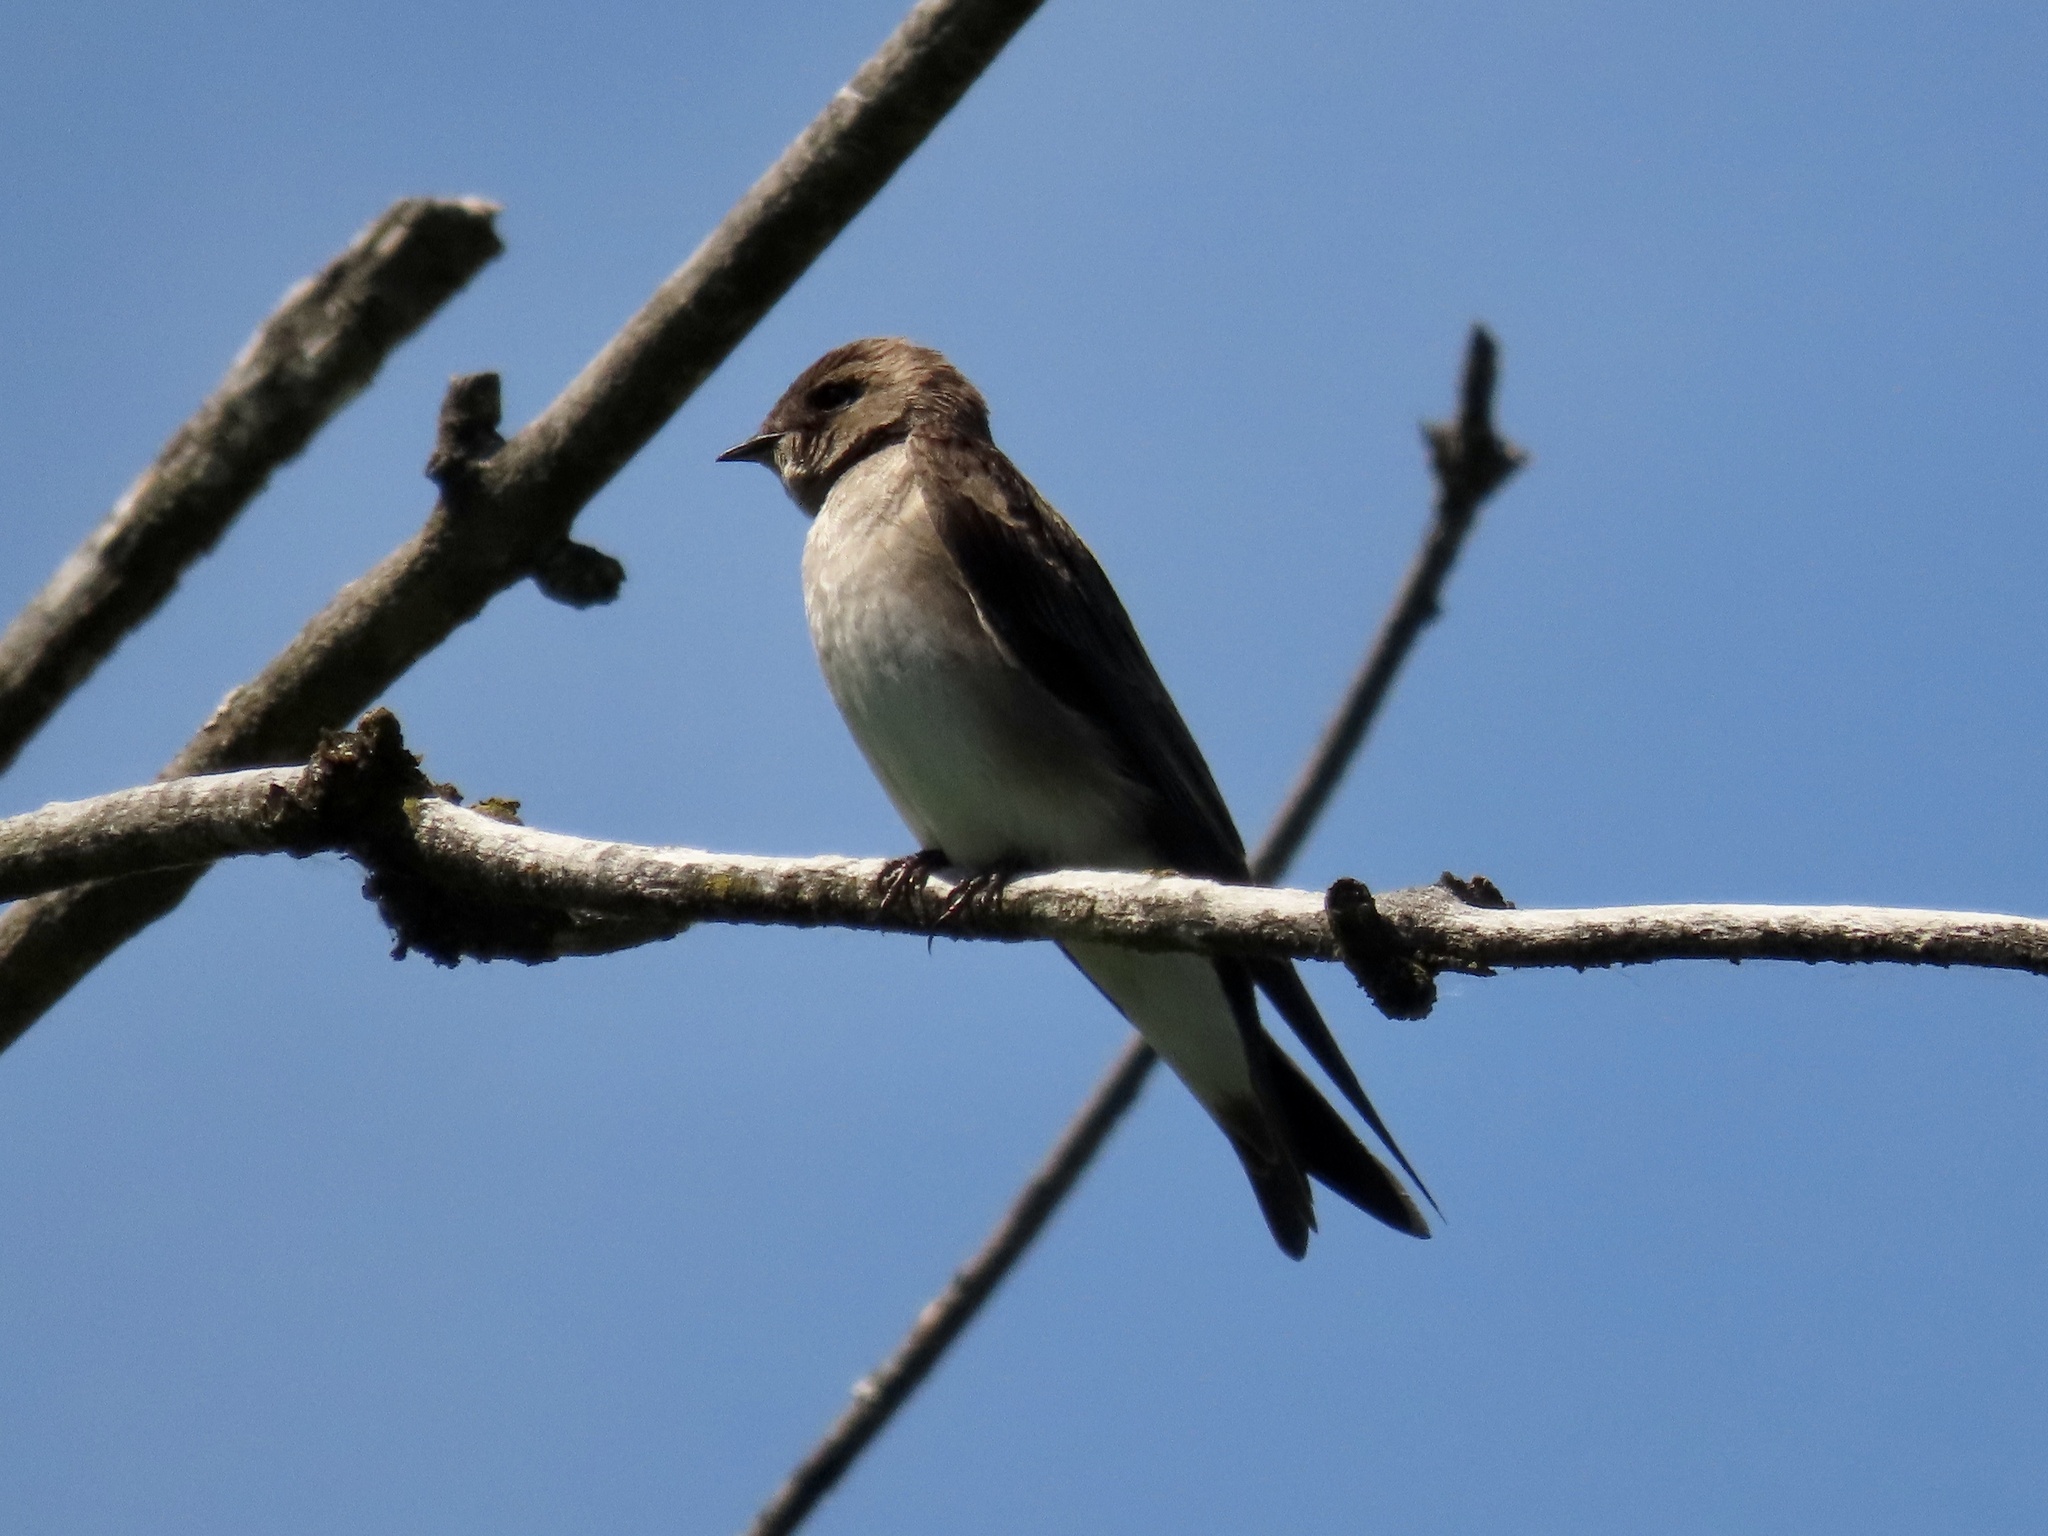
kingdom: Animalia
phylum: Chordata
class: Aves
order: Passeriformes
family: Hirundinidae
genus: Stelgidopteryx
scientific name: Stelgidopteryx serripennis
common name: Northern rough-winged swallow
